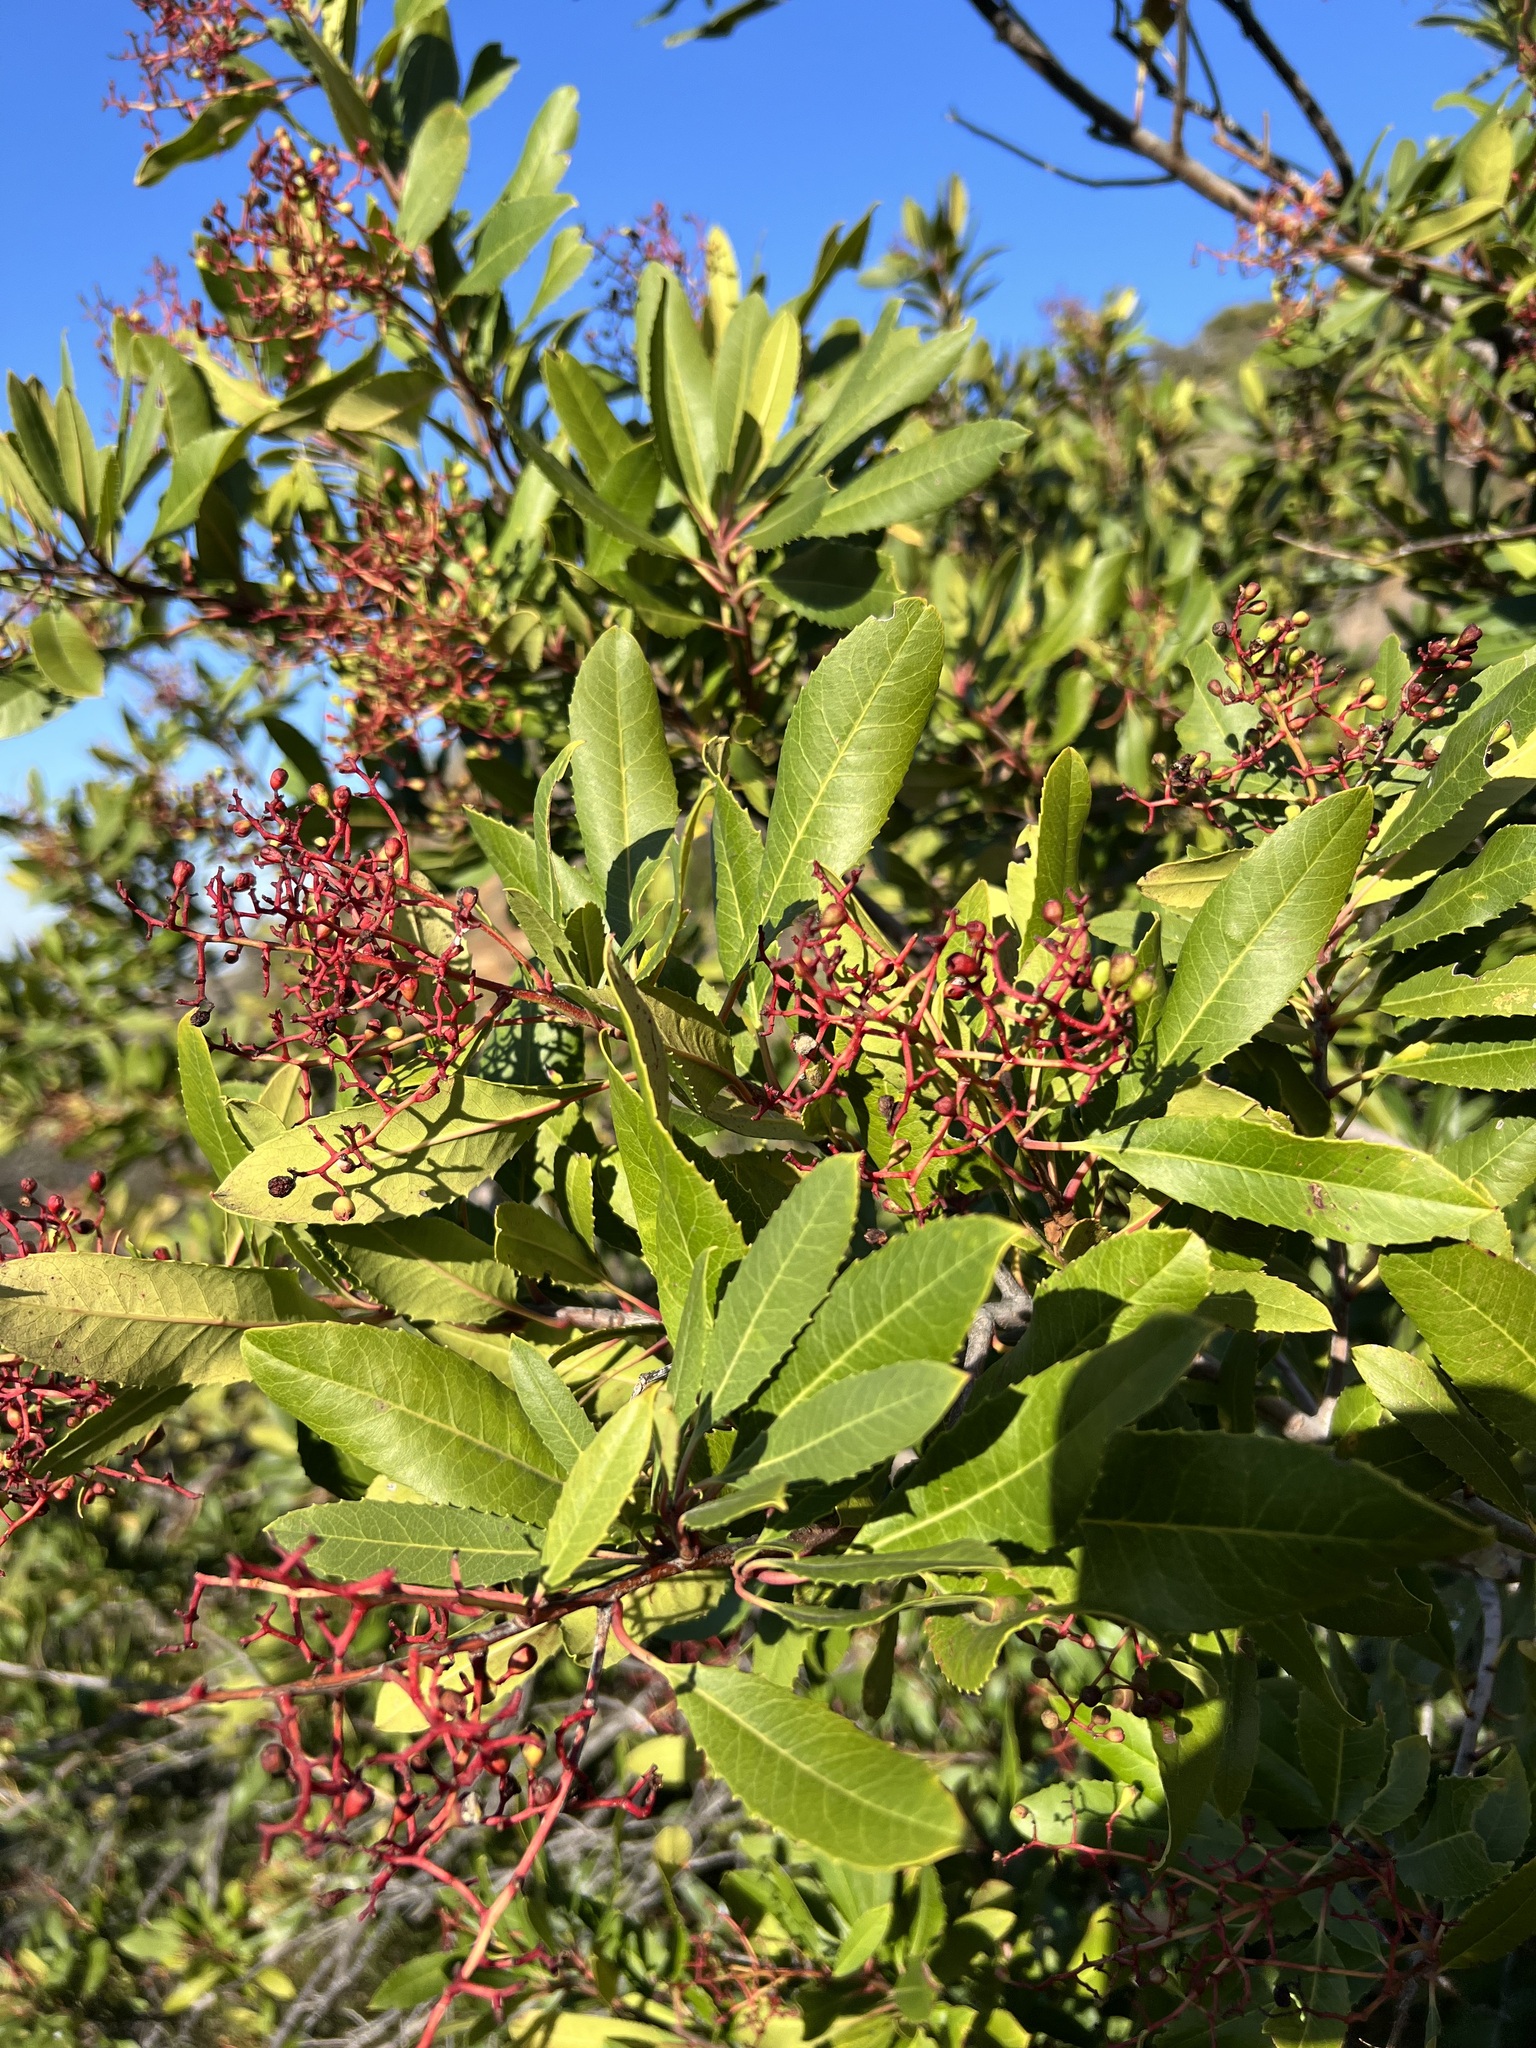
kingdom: Plantae
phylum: Tracheophyta
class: Magnoliopsida
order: Rosales
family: Rosaceae
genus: Heteromeles
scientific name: Heteromeles arbutifolia
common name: California-holly
